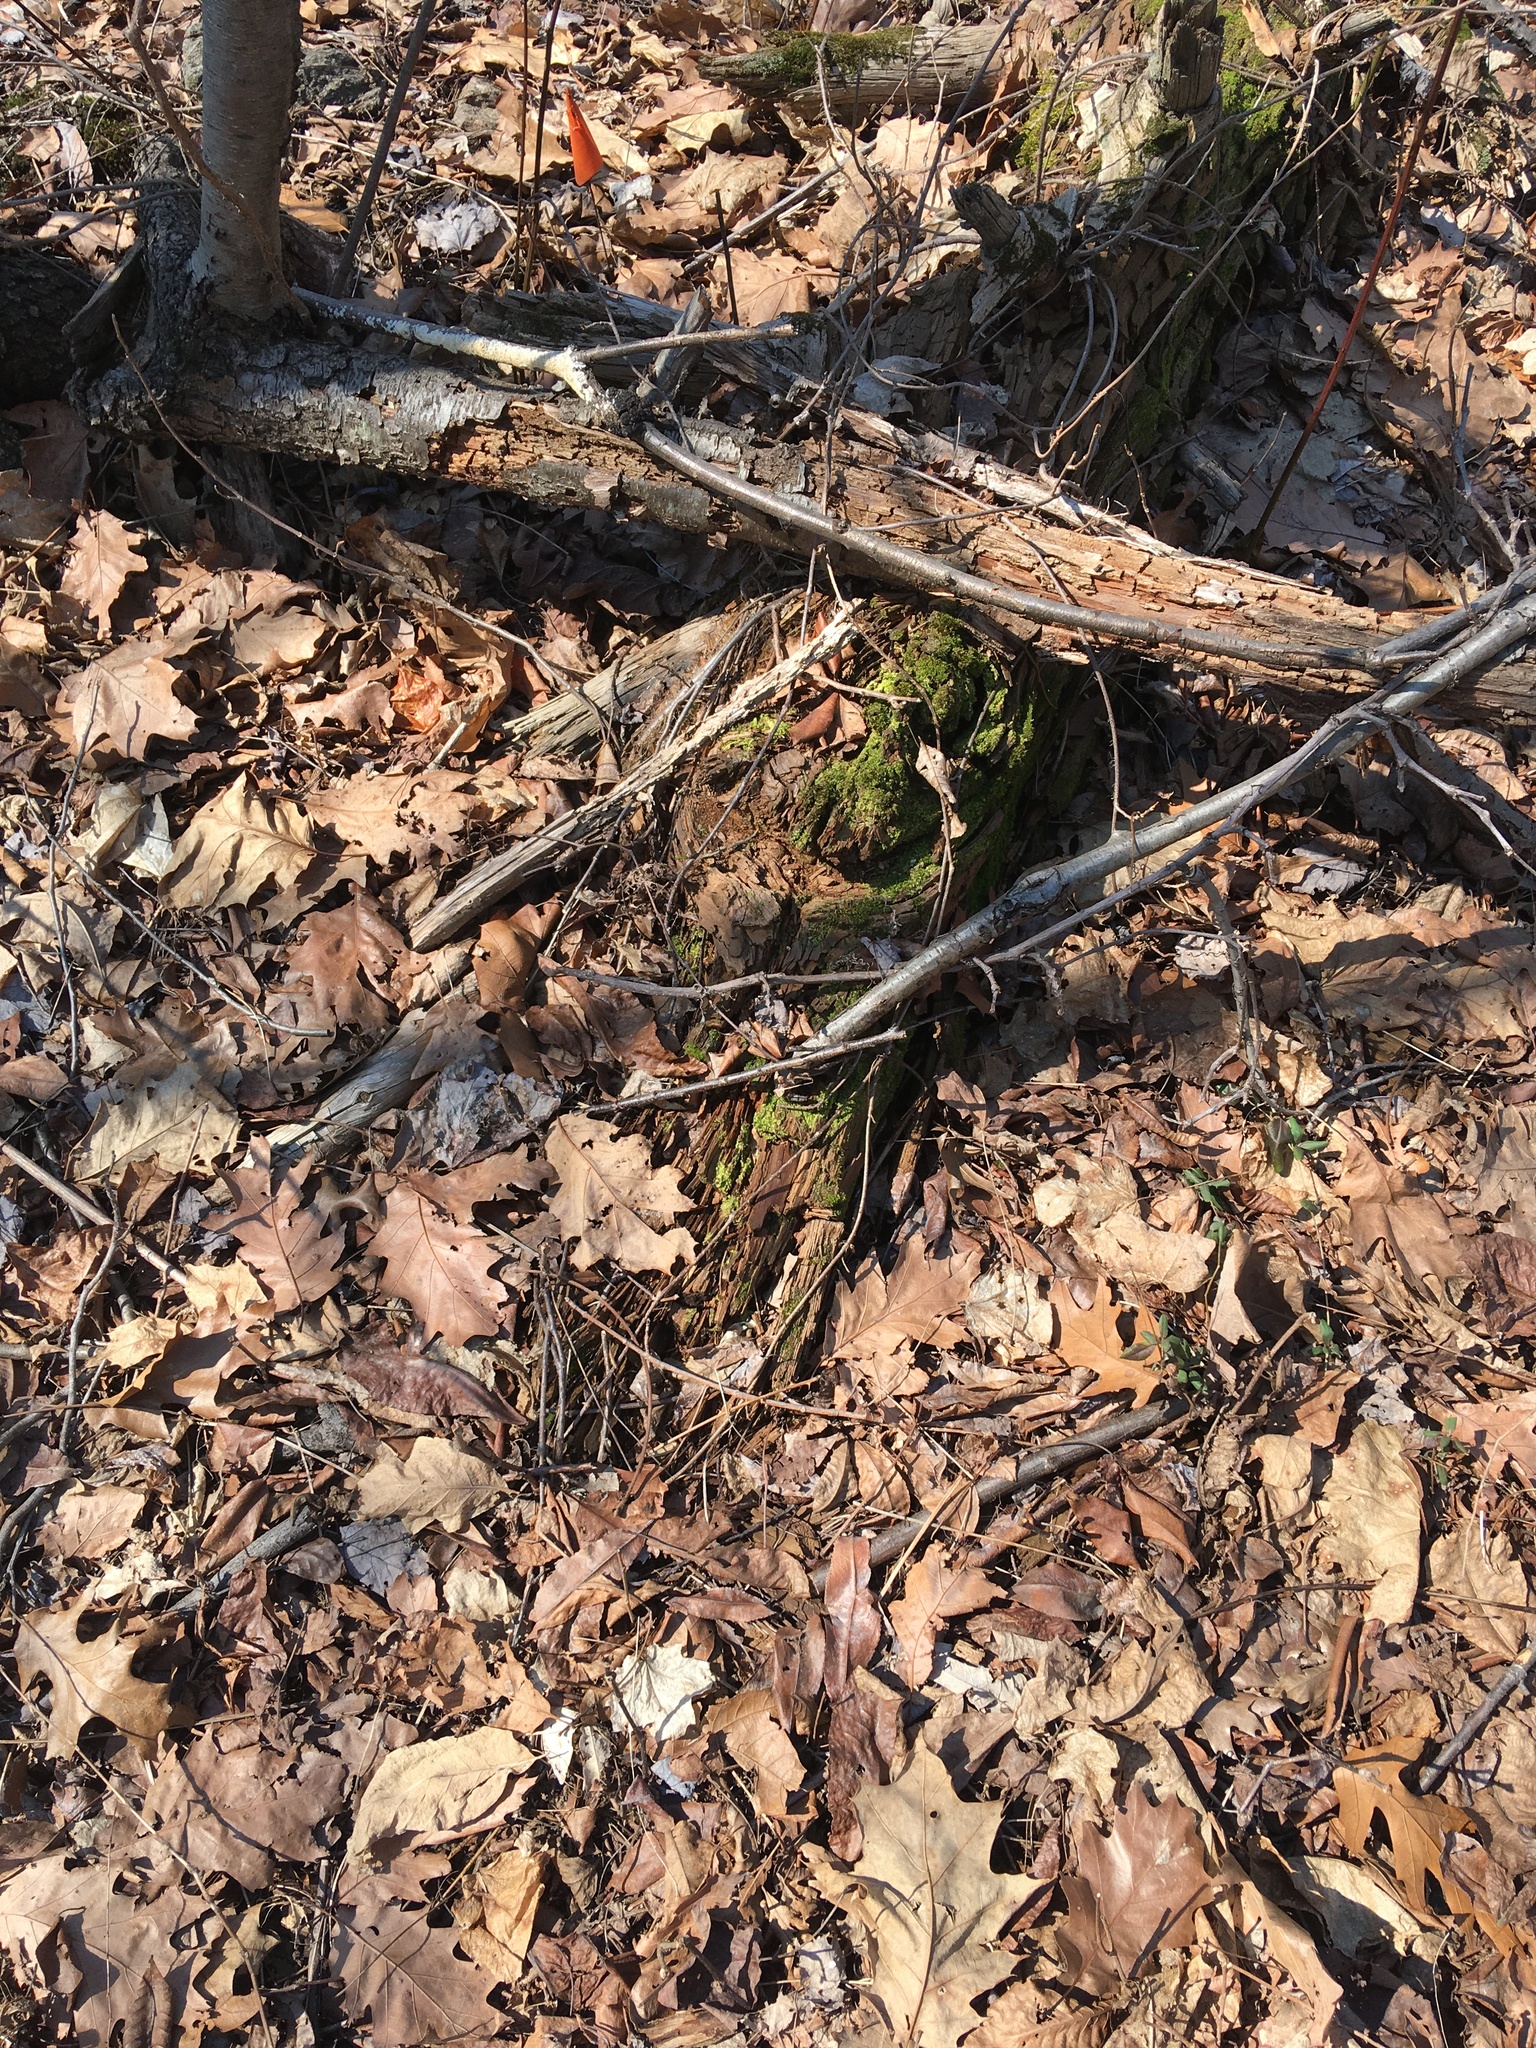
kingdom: Plantae
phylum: Marchantiophyta
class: Jungermanniopsida
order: Jungermanniales
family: Lophocoleaceae
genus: Lophocolea
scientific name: Lophocolea heterophylla
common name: Variable-leaved crestwort
